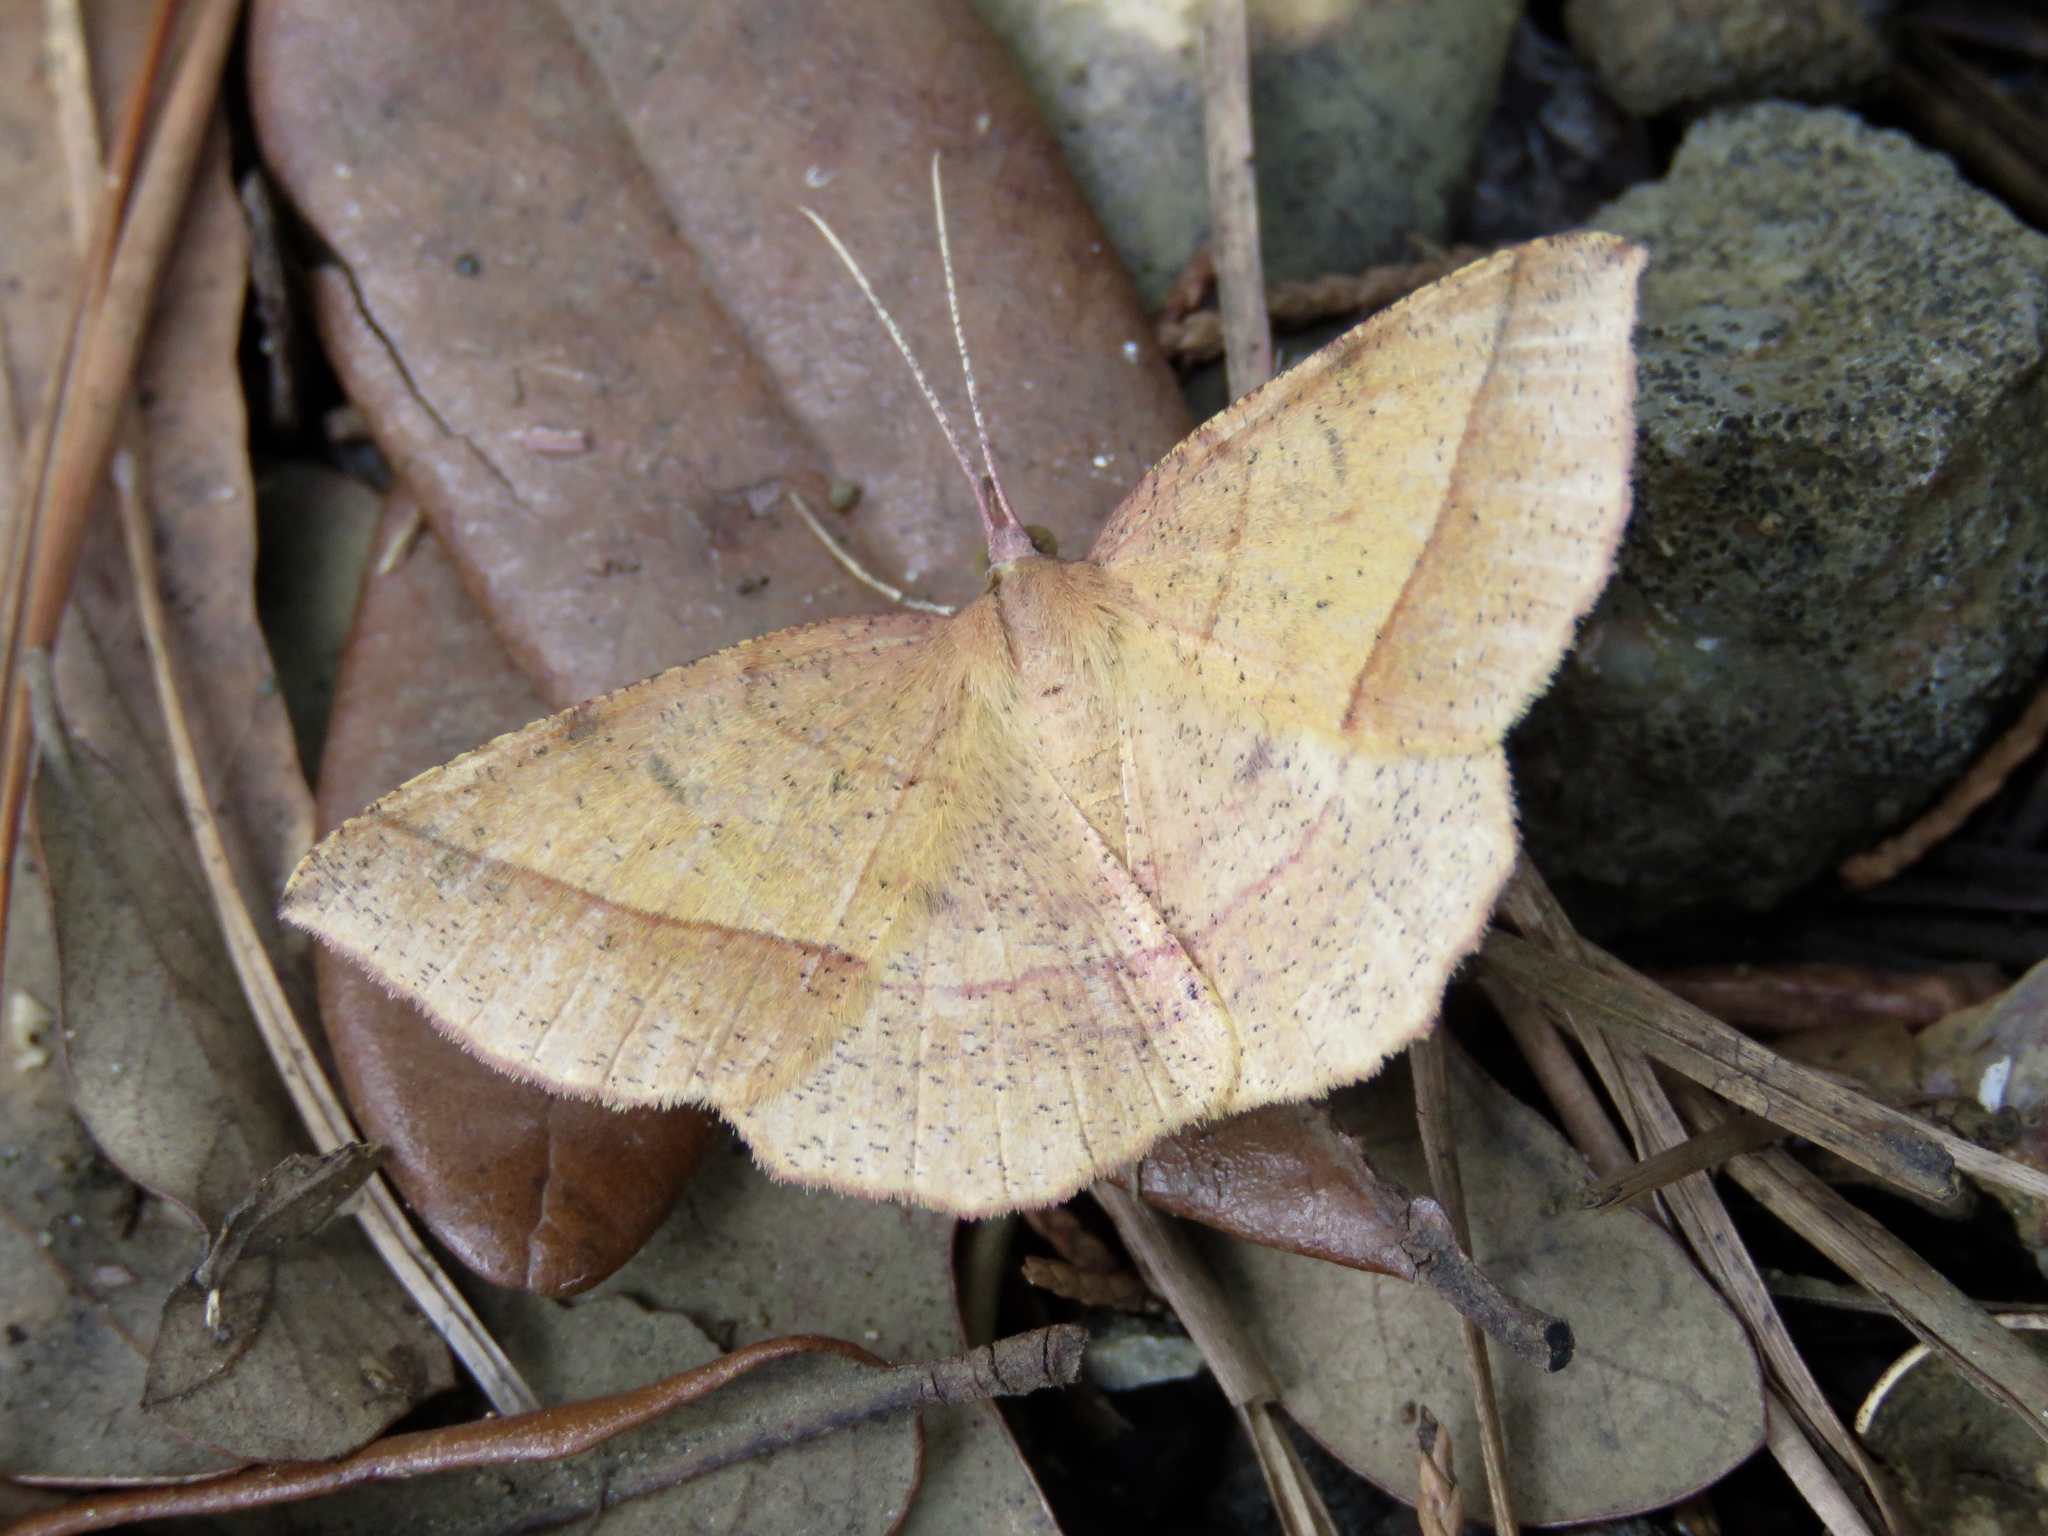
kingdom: Animalia
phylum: Arthropoda
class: Insecta
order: Lepidoptera
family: Geometridae
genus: Erastria
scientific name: Erastria cruentaria
